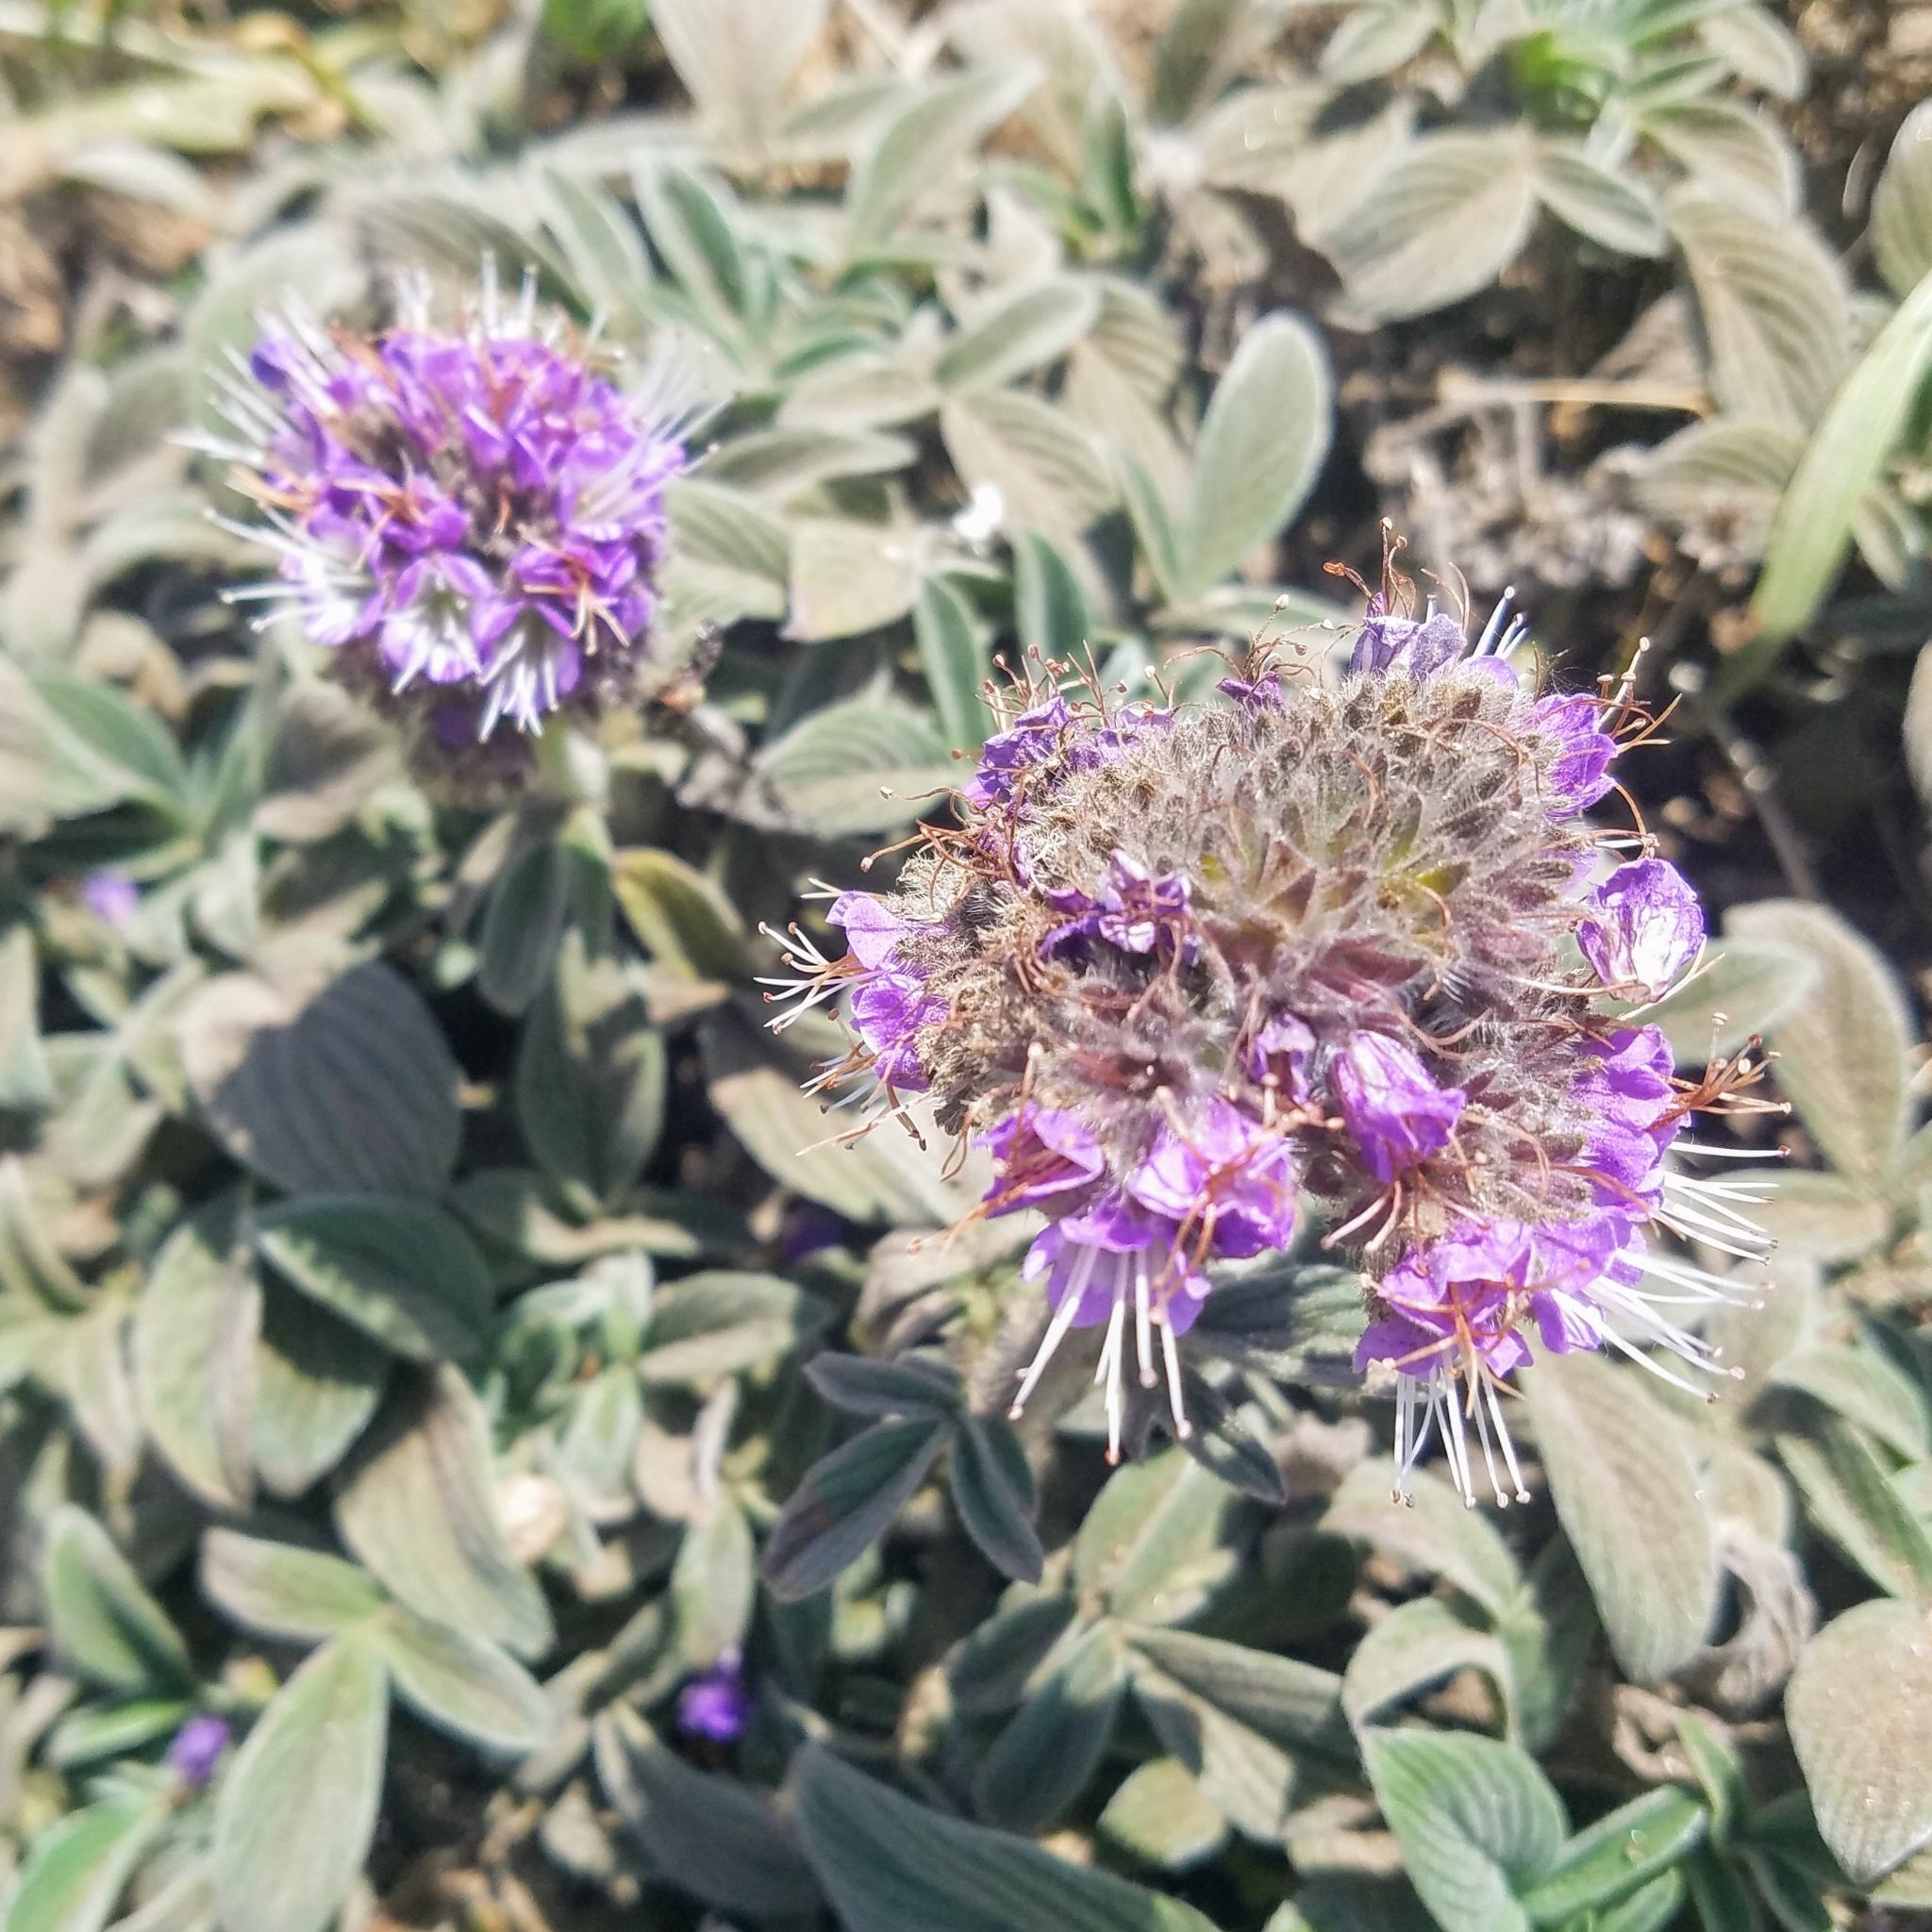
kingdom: Plantae
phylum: Tracheophyta
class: Magnoliopsida
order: Boraginales
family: Hydrophyllaceae
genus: Phacelia
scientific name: Phacelia californica
